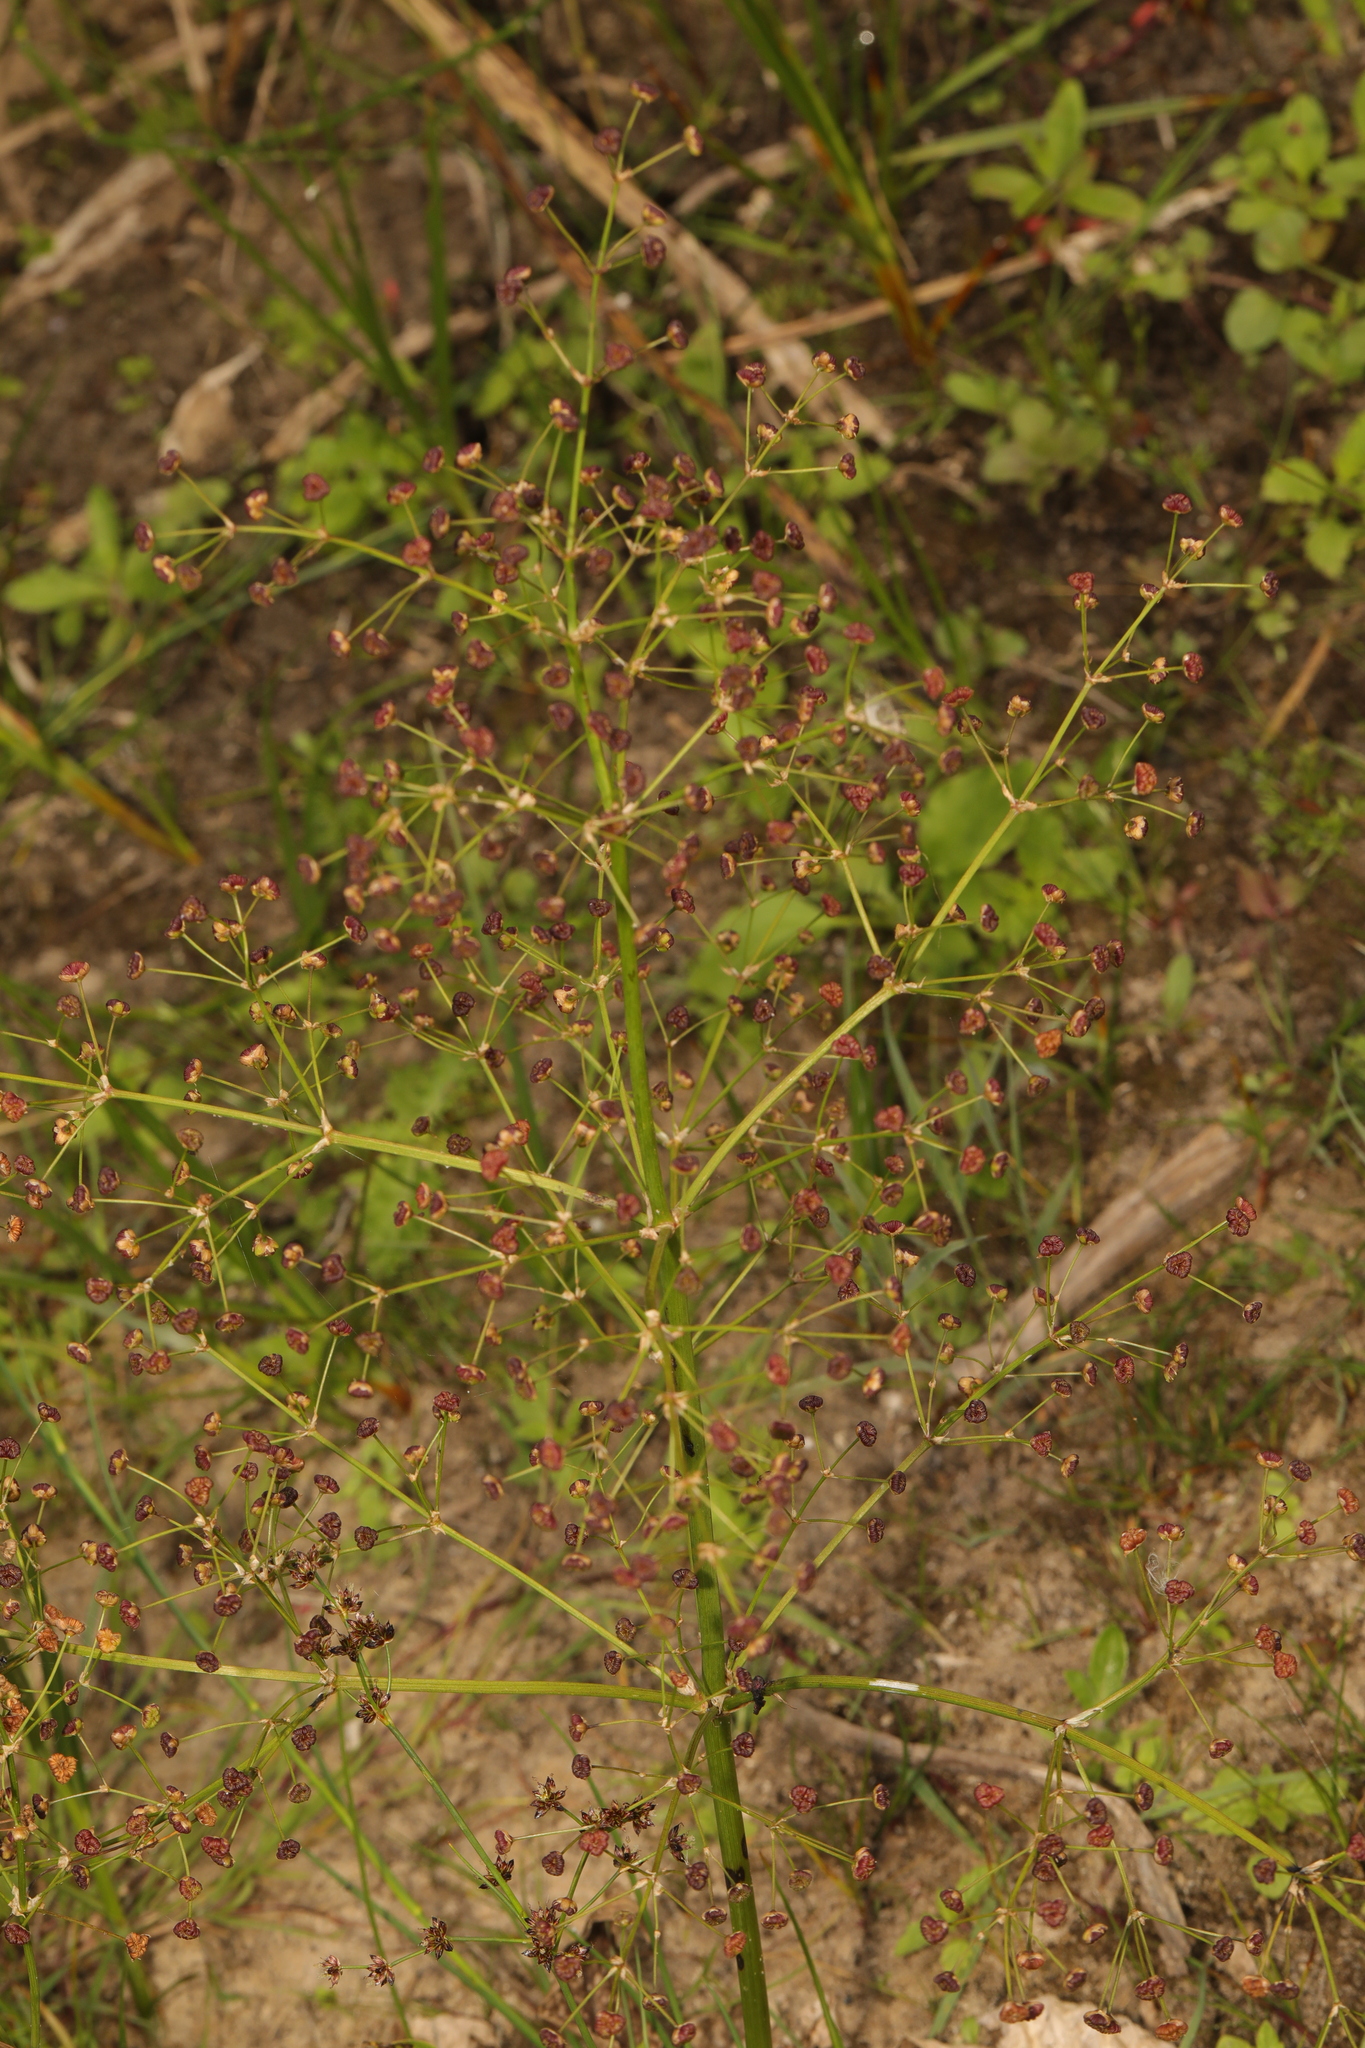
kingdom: Plantae
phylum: Tracheophyta
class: Liliopsida
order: Alismatales
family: Alismataceae
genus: Alisma
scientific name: Alisma plantago-aquatica
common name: Water-plantain
